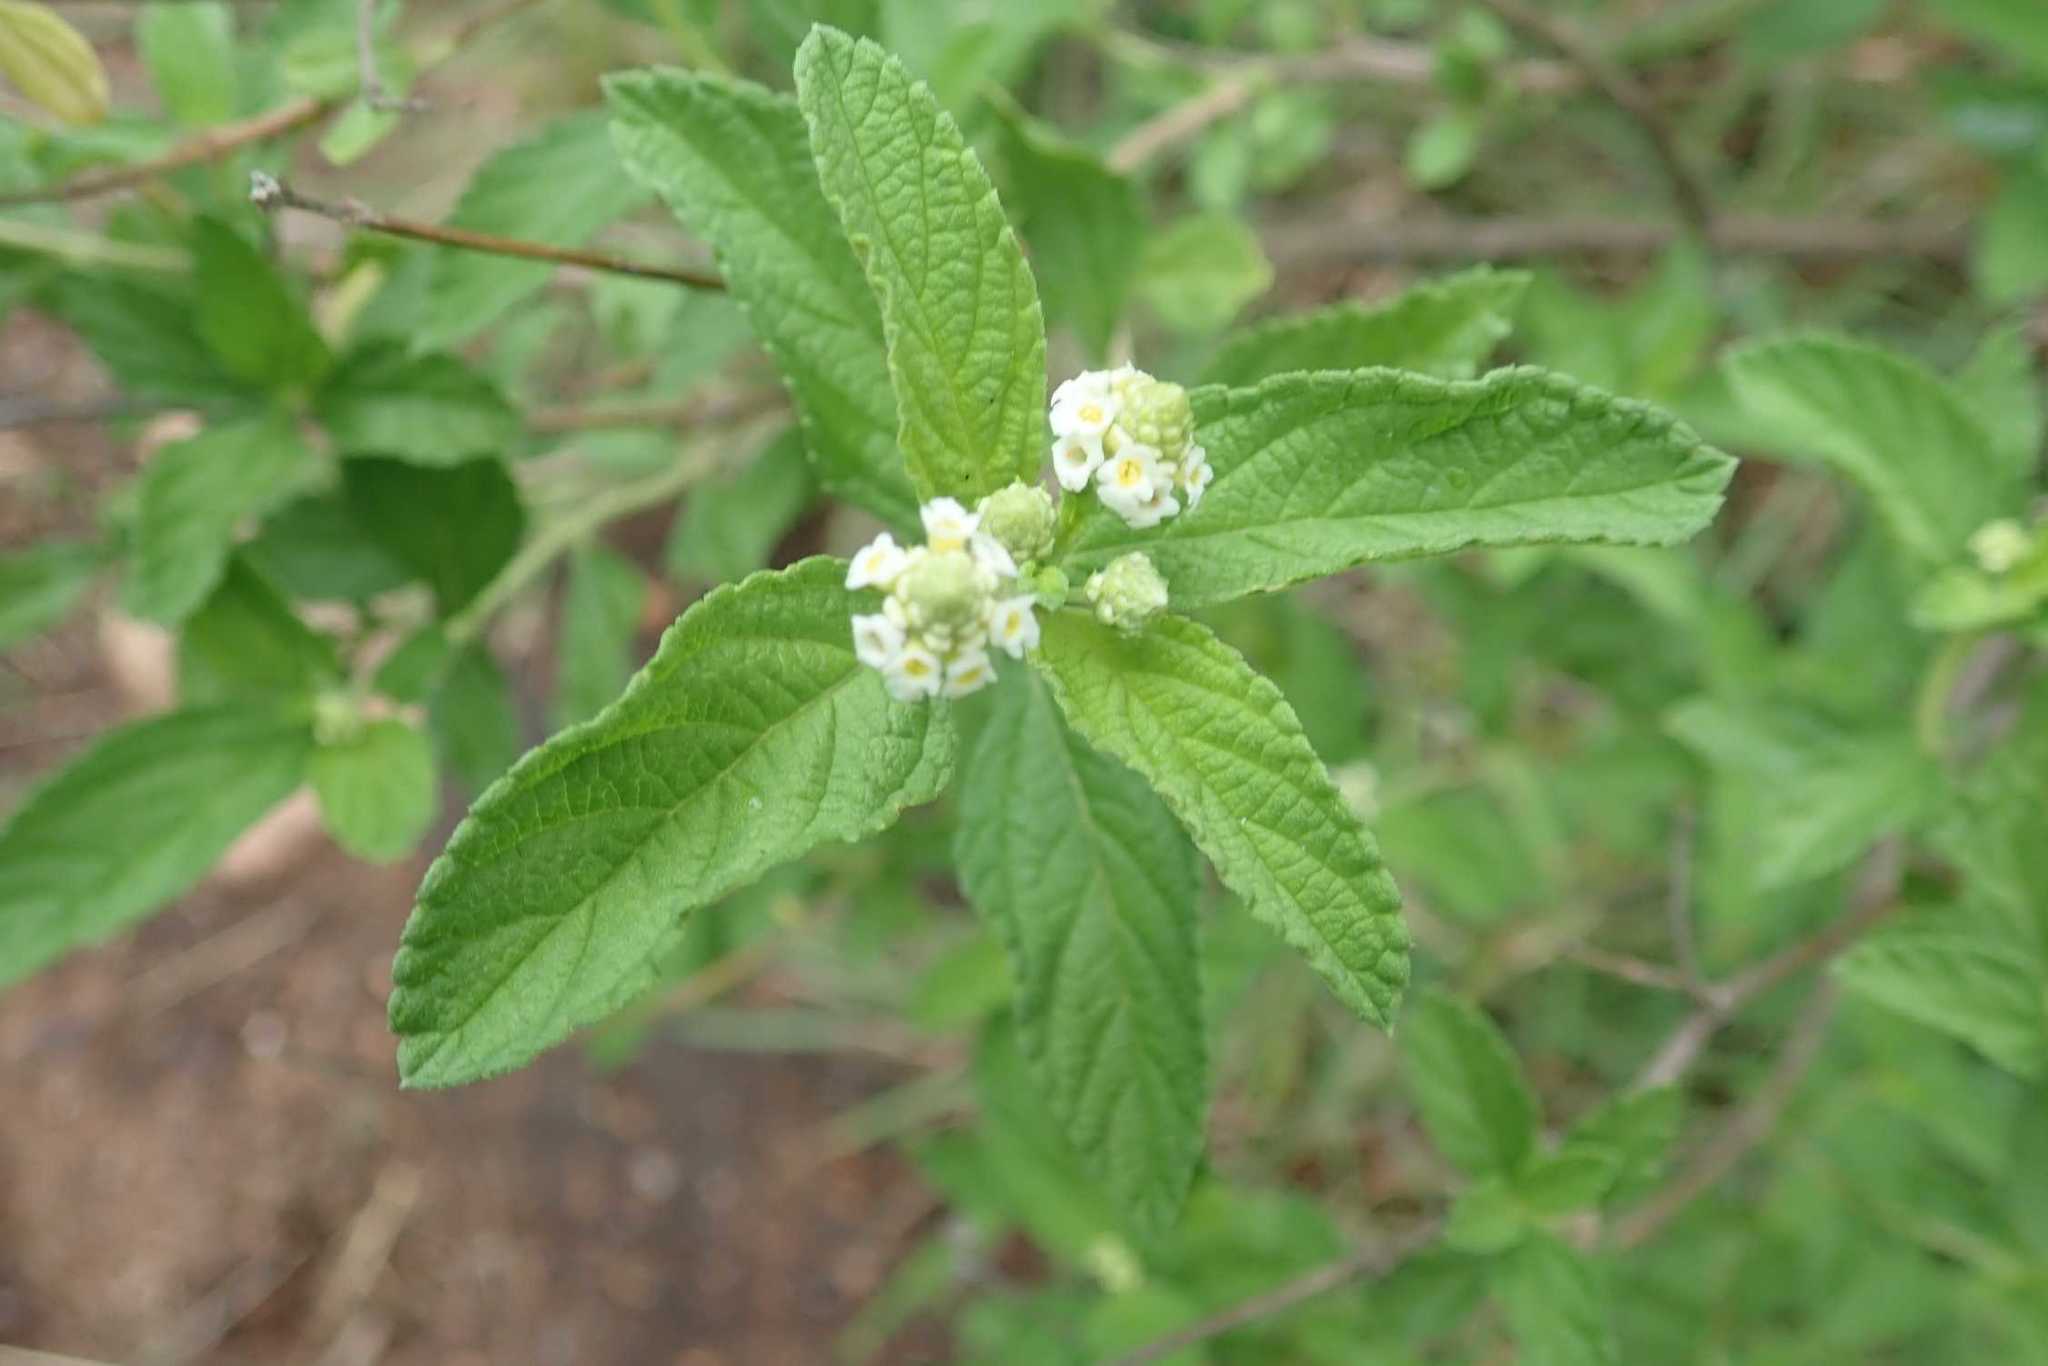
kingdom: Plantae
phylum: Tracheophyta
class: Magnoliopsida
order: Lamiales
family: Verbenaceae
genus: Lippia
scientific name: Lippia javanica
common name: Lemonbush
